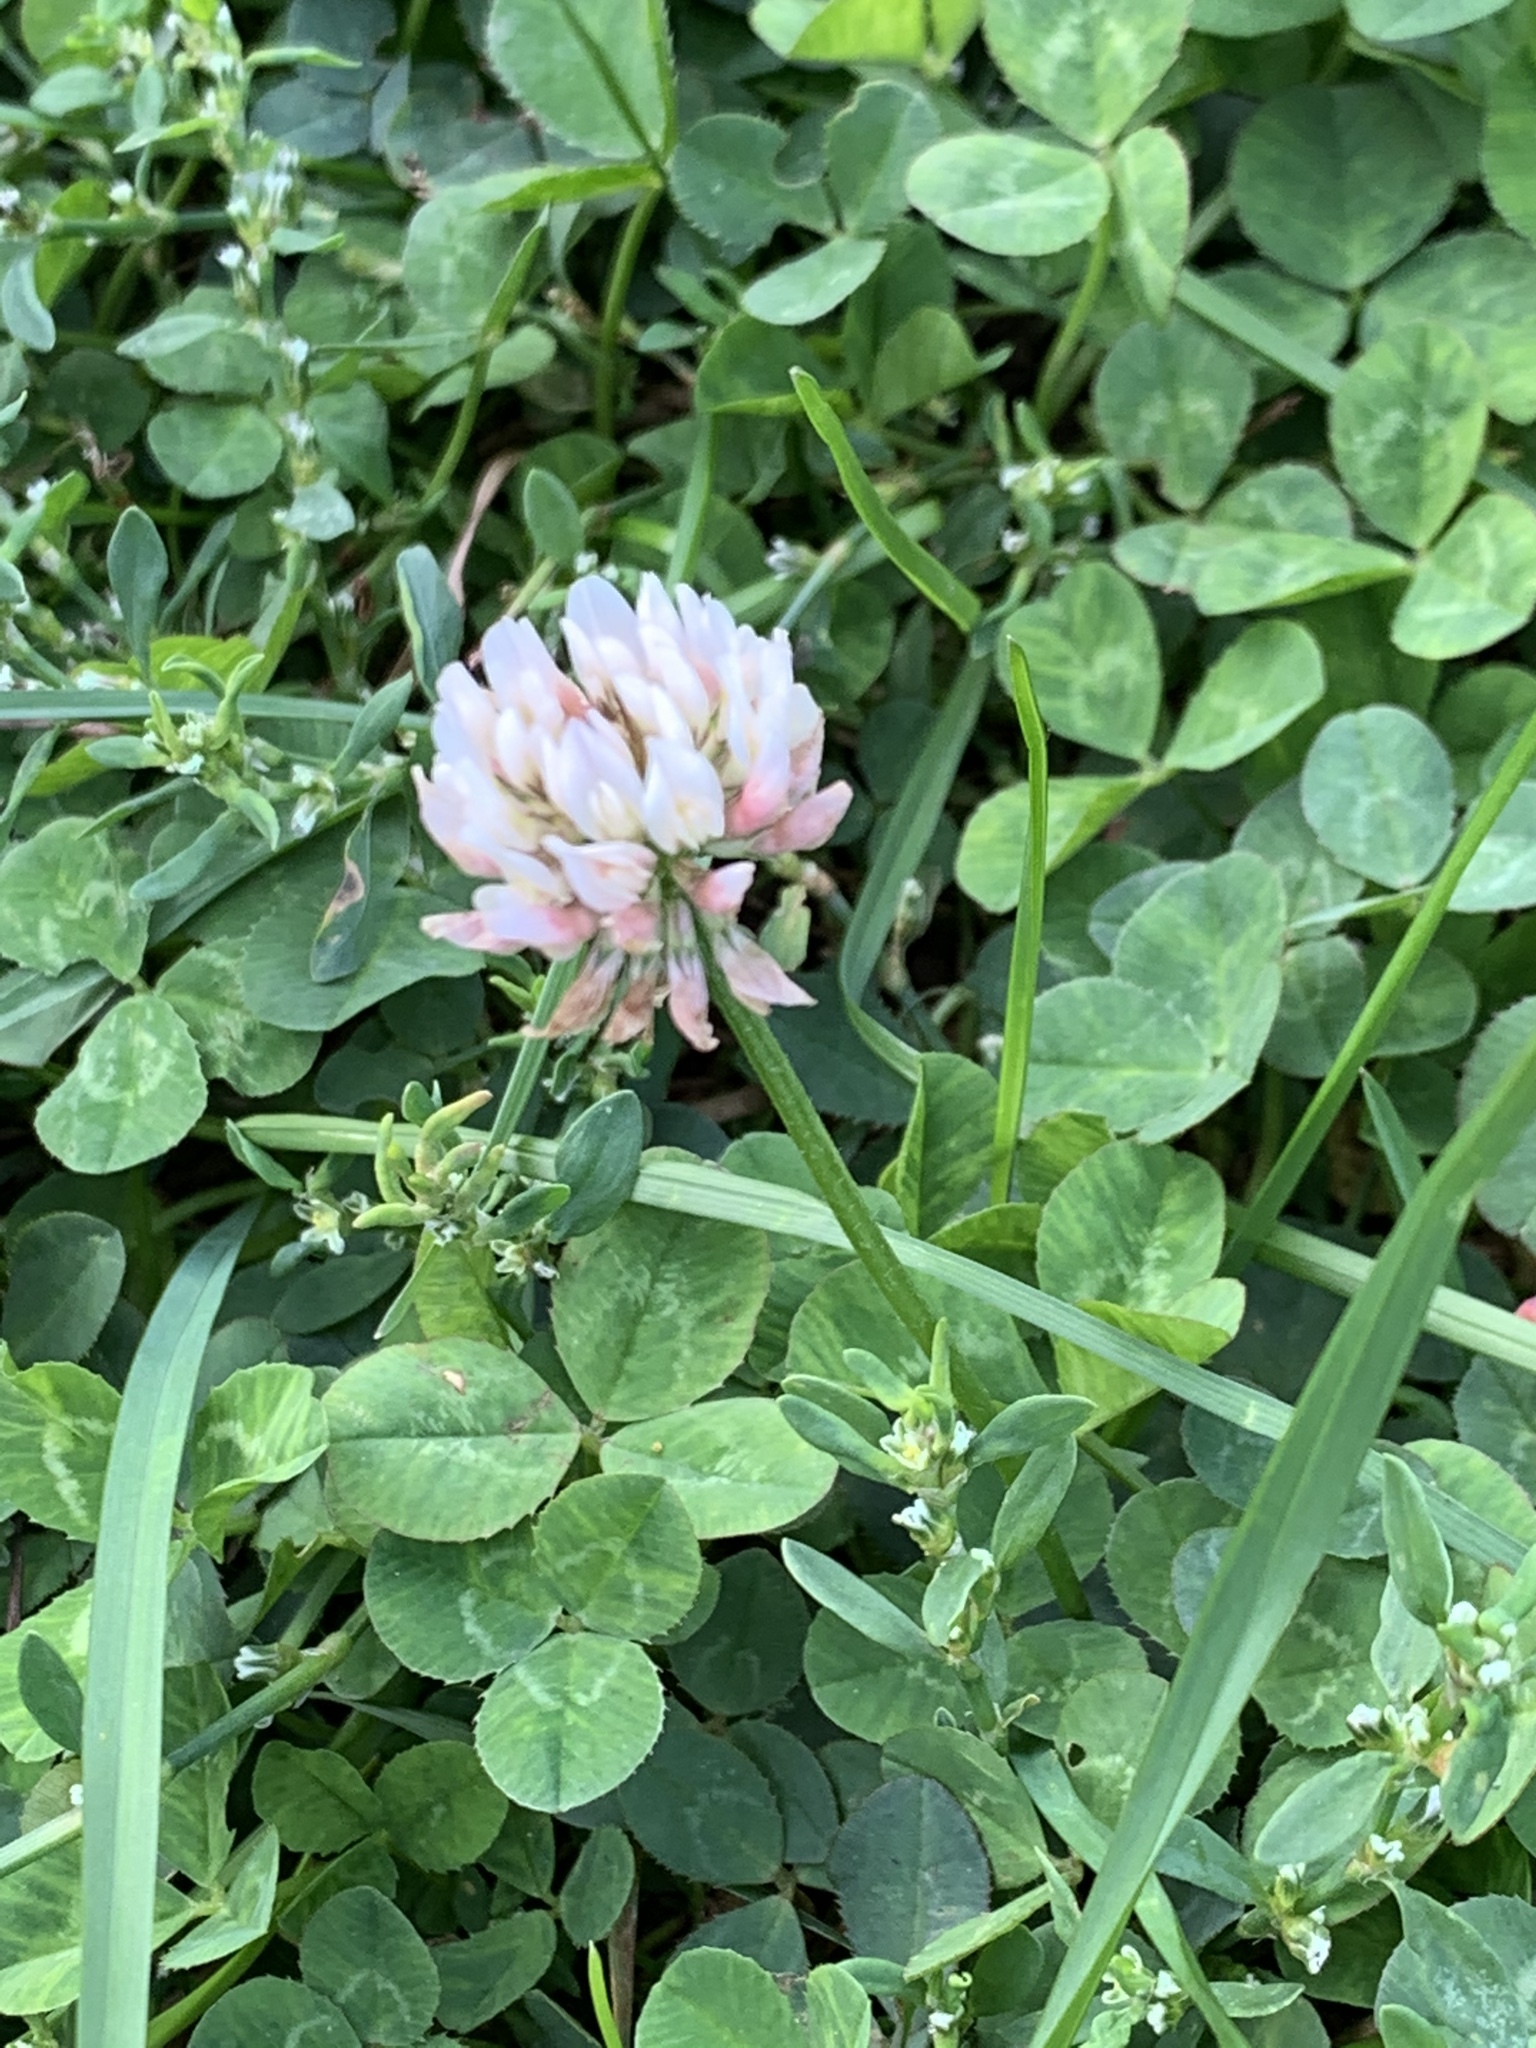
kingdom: Plantae
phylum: Tracheophyta
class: Magnoliopsida
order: Fabales
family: Fabaceae
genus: Trifolium
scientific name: Trifolium repens
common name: White clover
